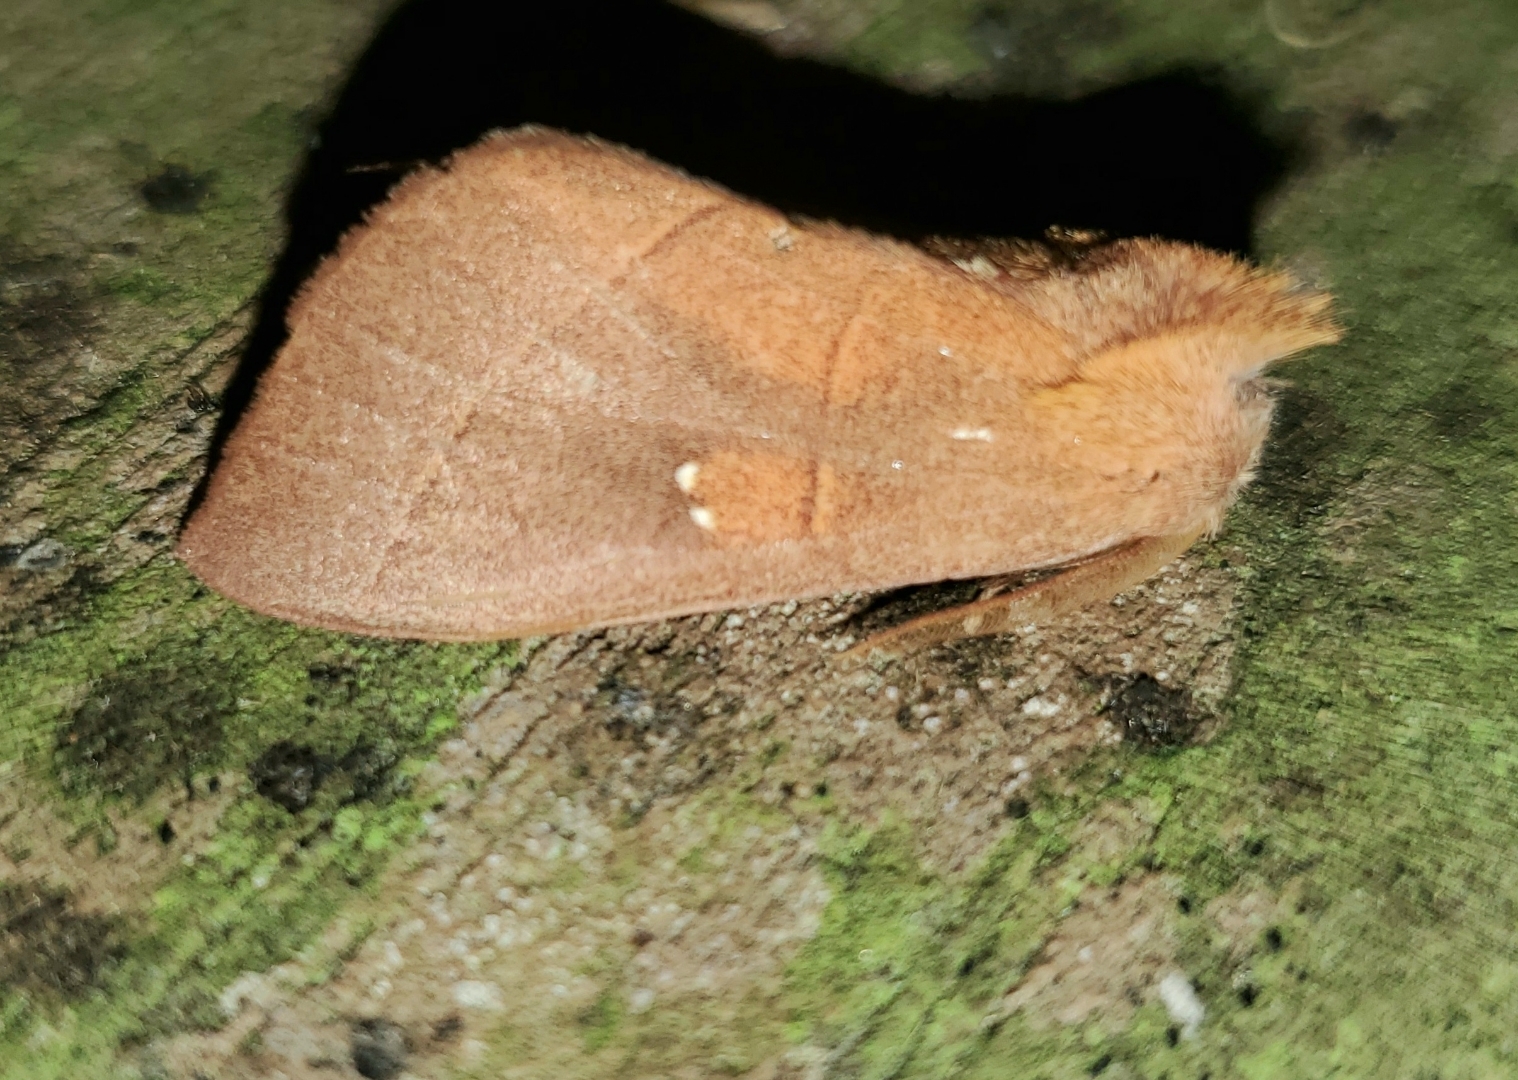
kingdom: Animalia
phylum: Arthropoda
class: Insecta
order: Lepidoptera
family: Notodontidae
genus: Nadata
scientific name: Nadata gibbosa
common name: White-dotted prominent
